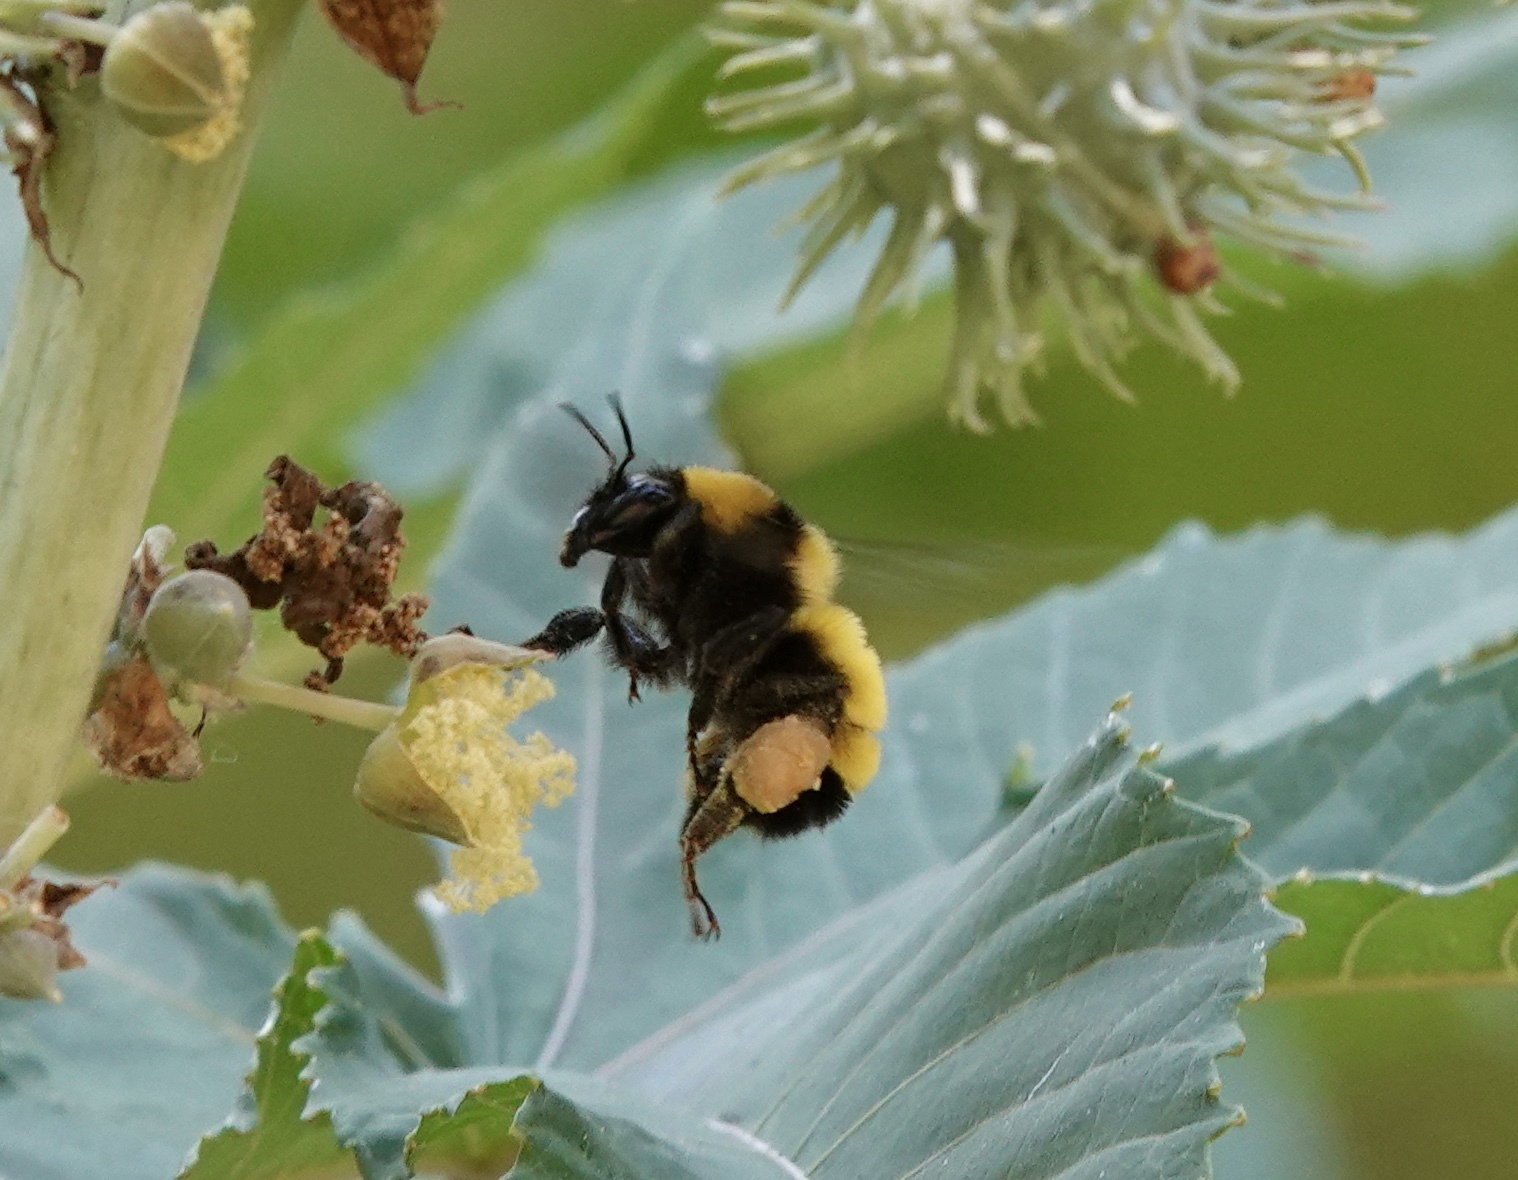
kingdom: Animalia
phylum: Arthropoda
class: Insecta
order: Hymenoptera
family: Apidae
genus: Bombus
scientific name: Bombus sonorus
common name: Sonoran bumble bee
